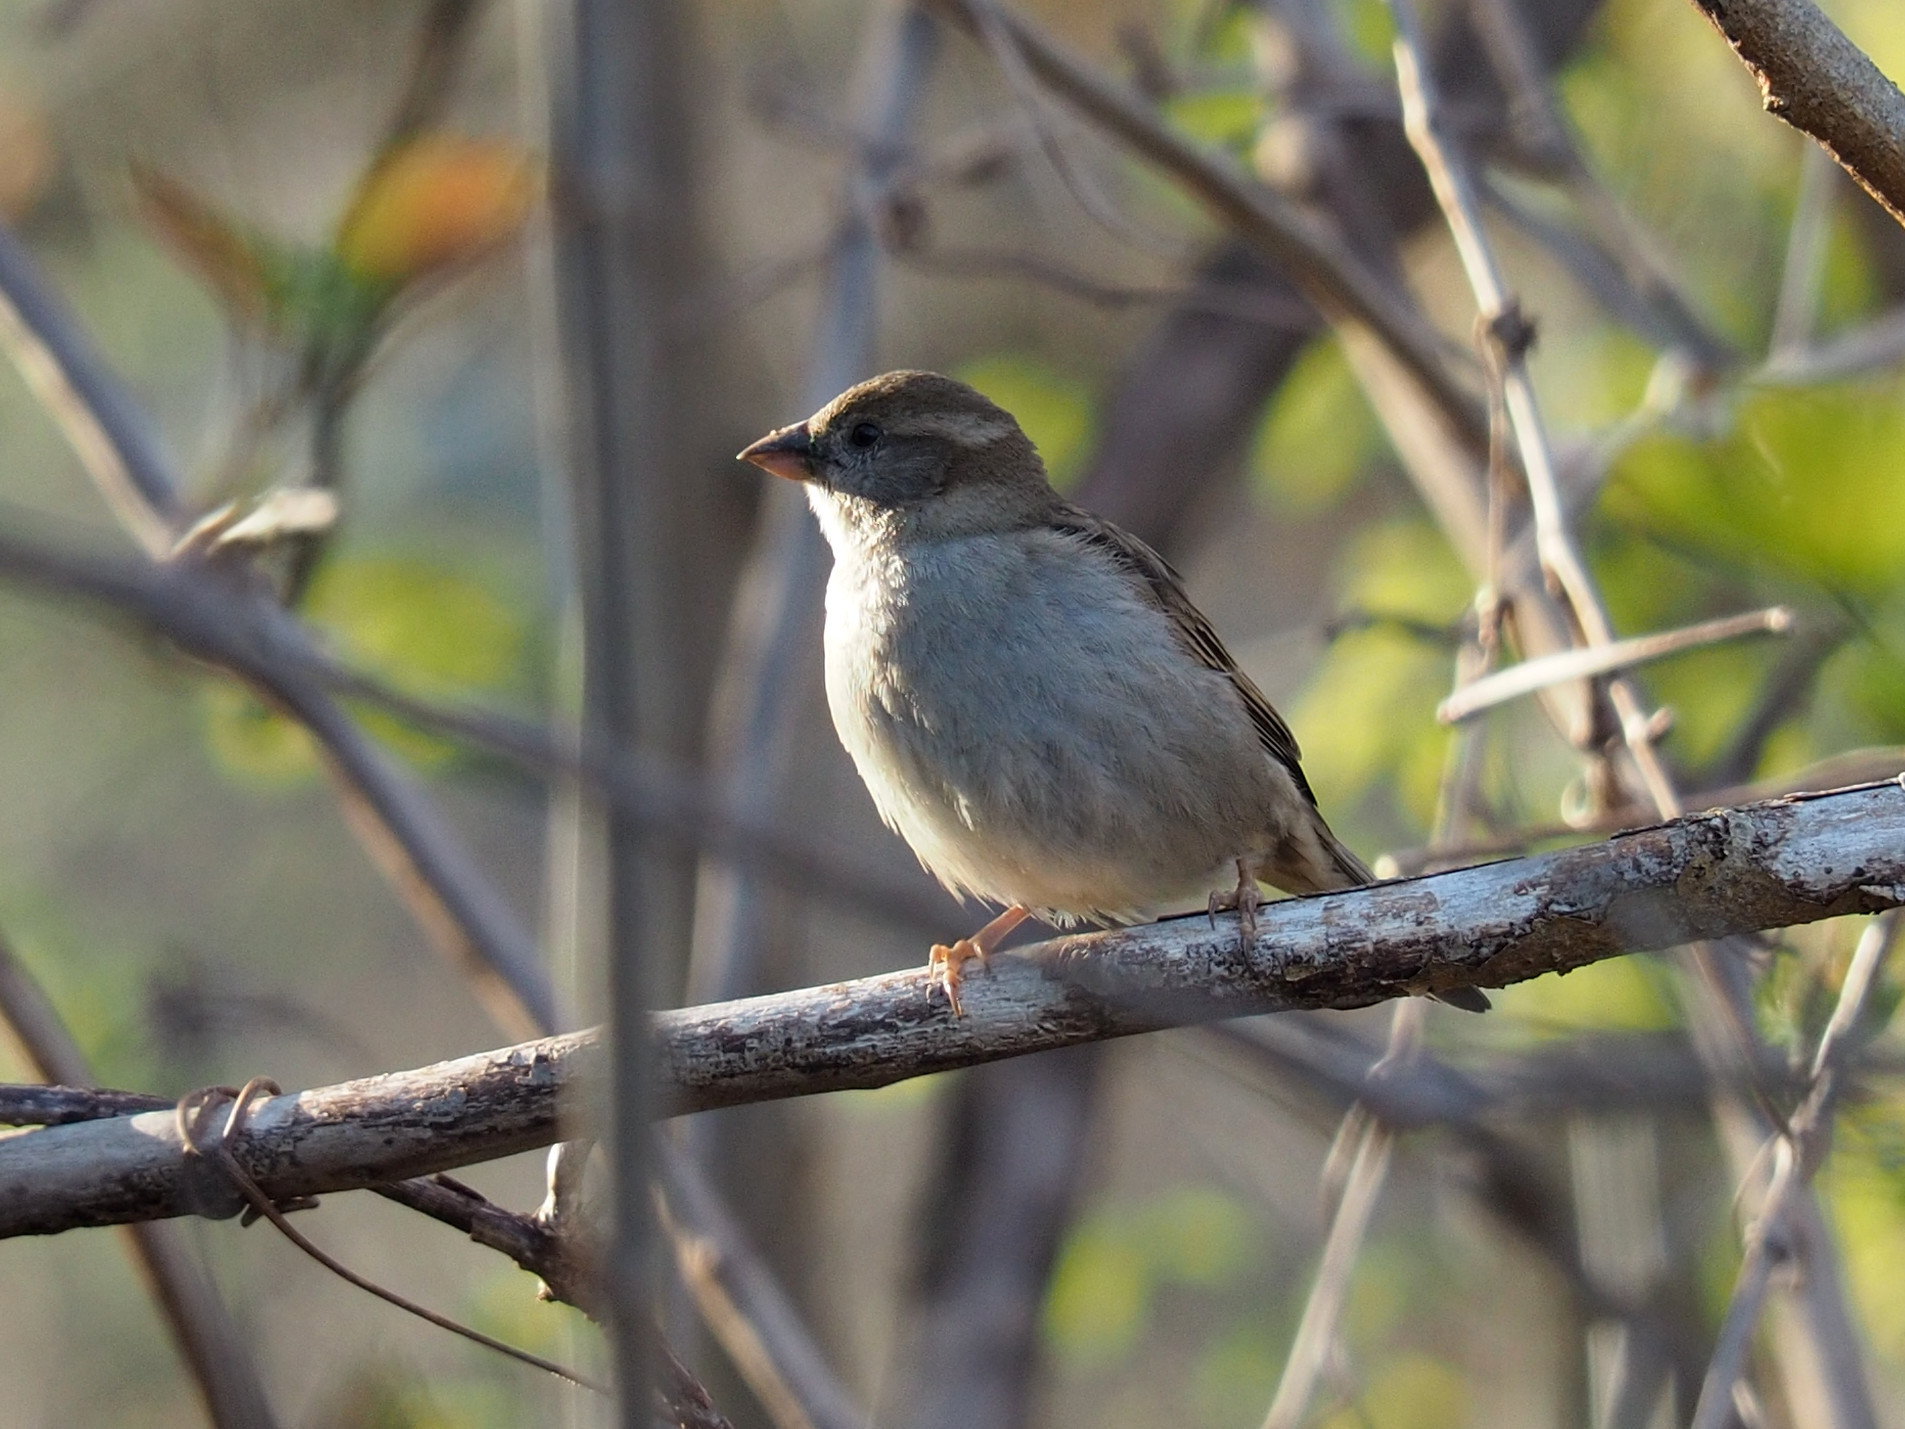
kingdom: Animalia
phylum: Chordata
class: Aves
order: Passeriformes
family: Passeridae
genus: Passer
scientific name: Passer domesticus
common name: House sparrow
